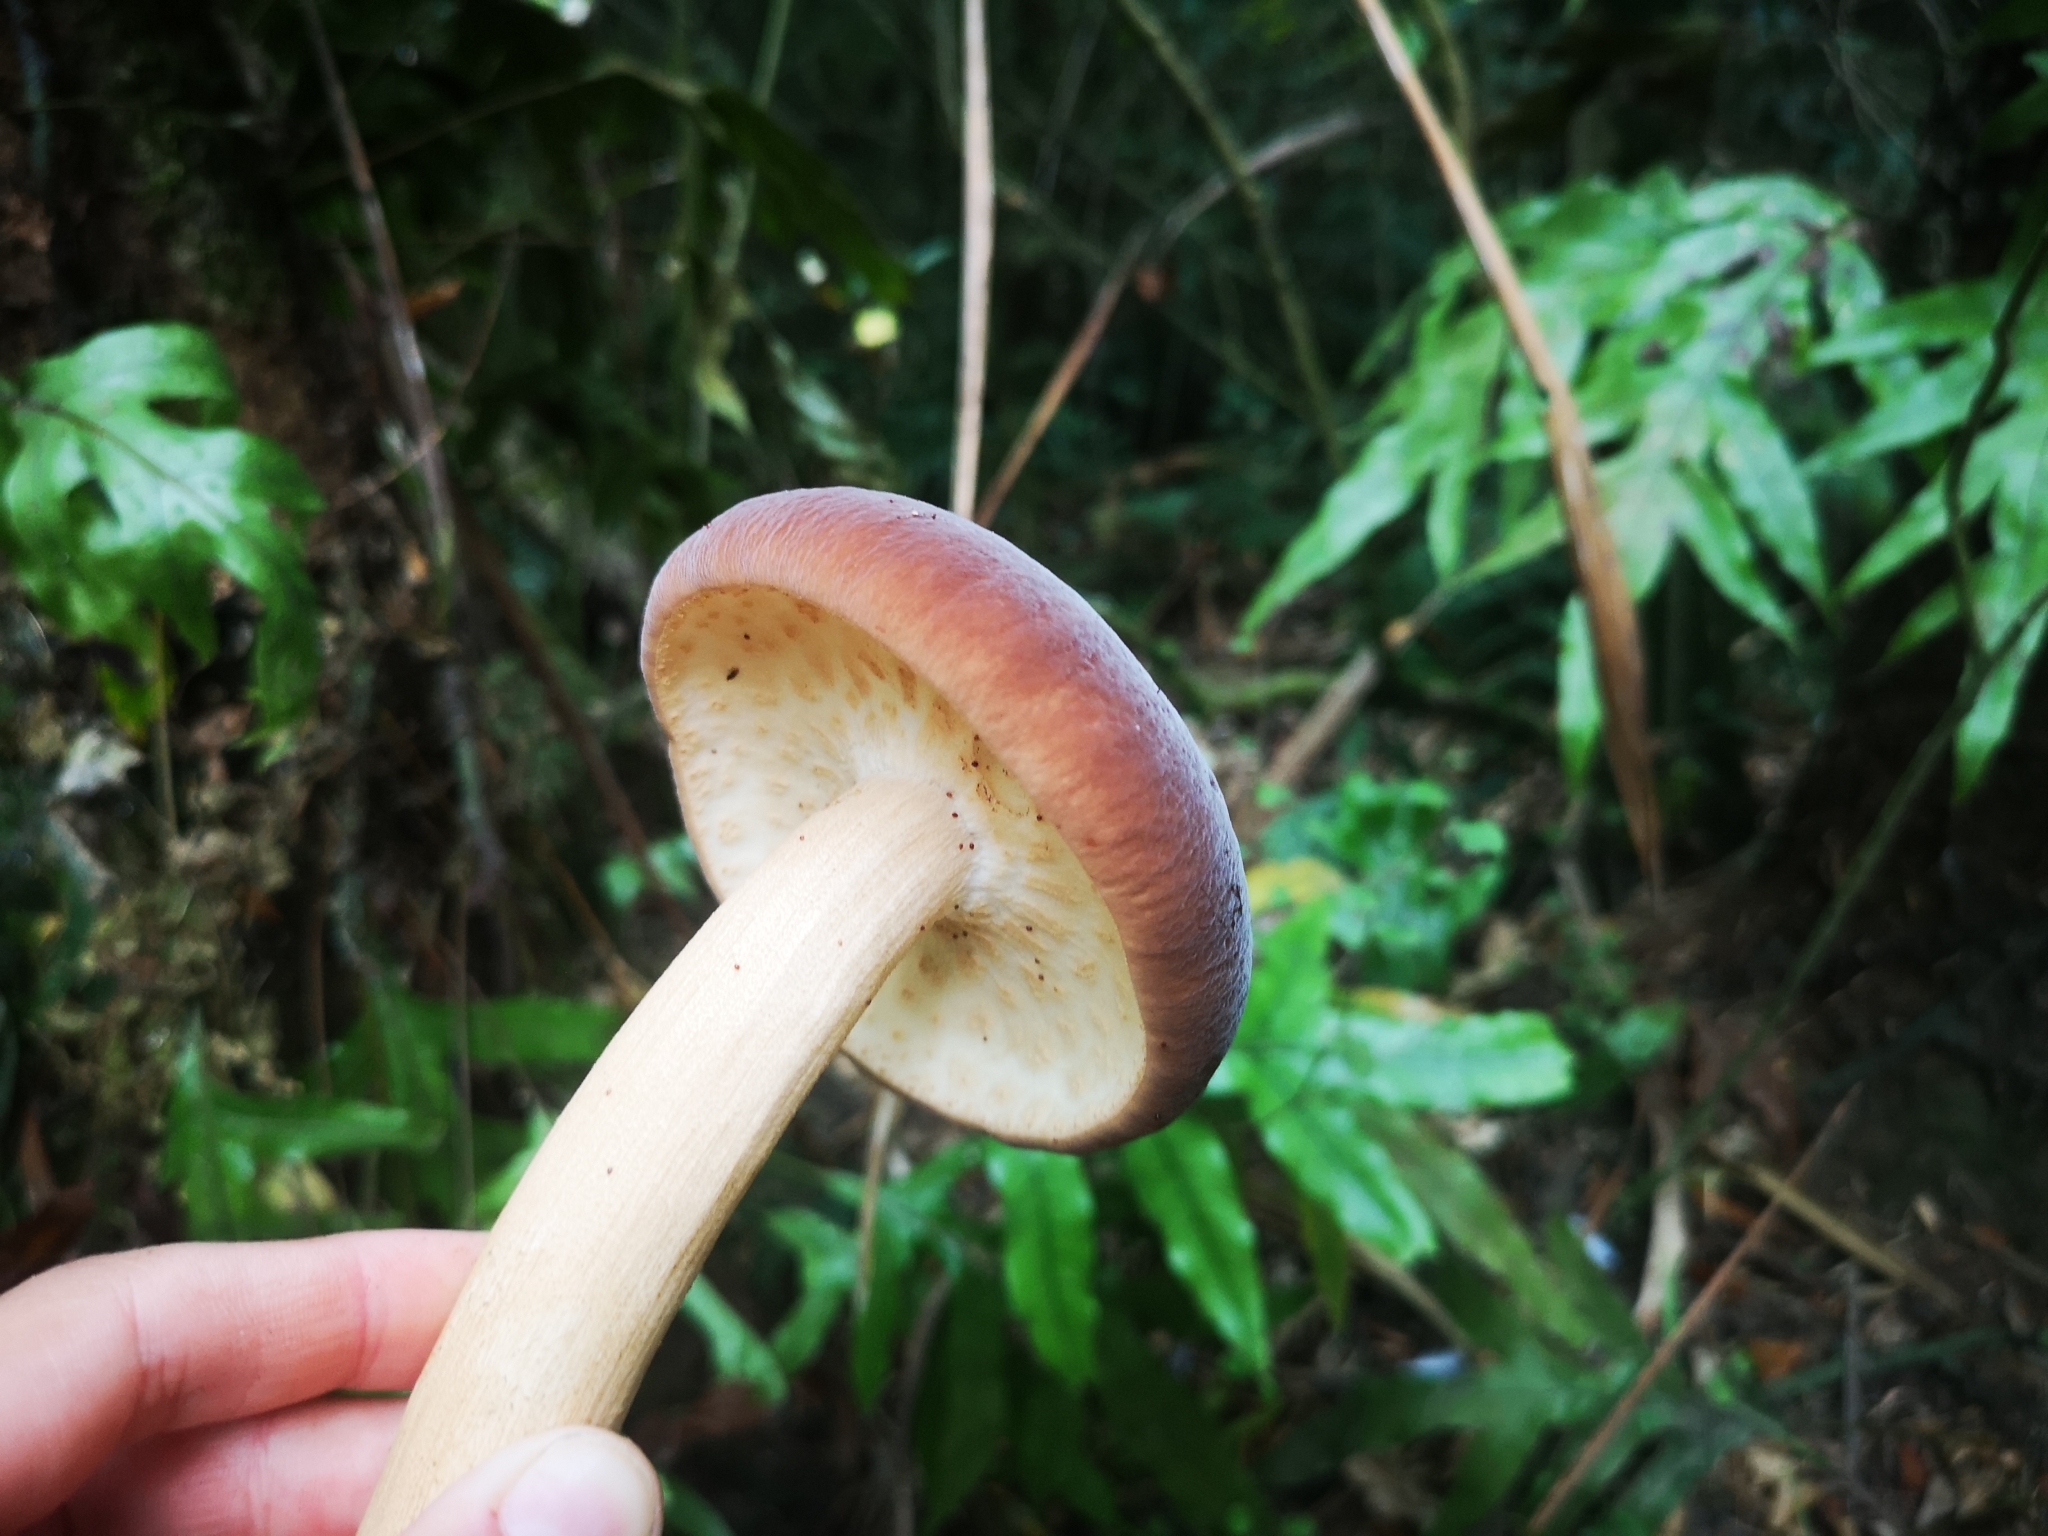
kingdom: Fungi
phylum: Basidiomycota
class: Agaricomycetes
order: Agaricales
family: Tubariaceae
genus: Cyclocybe
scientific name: Cyclocybe parasitica
